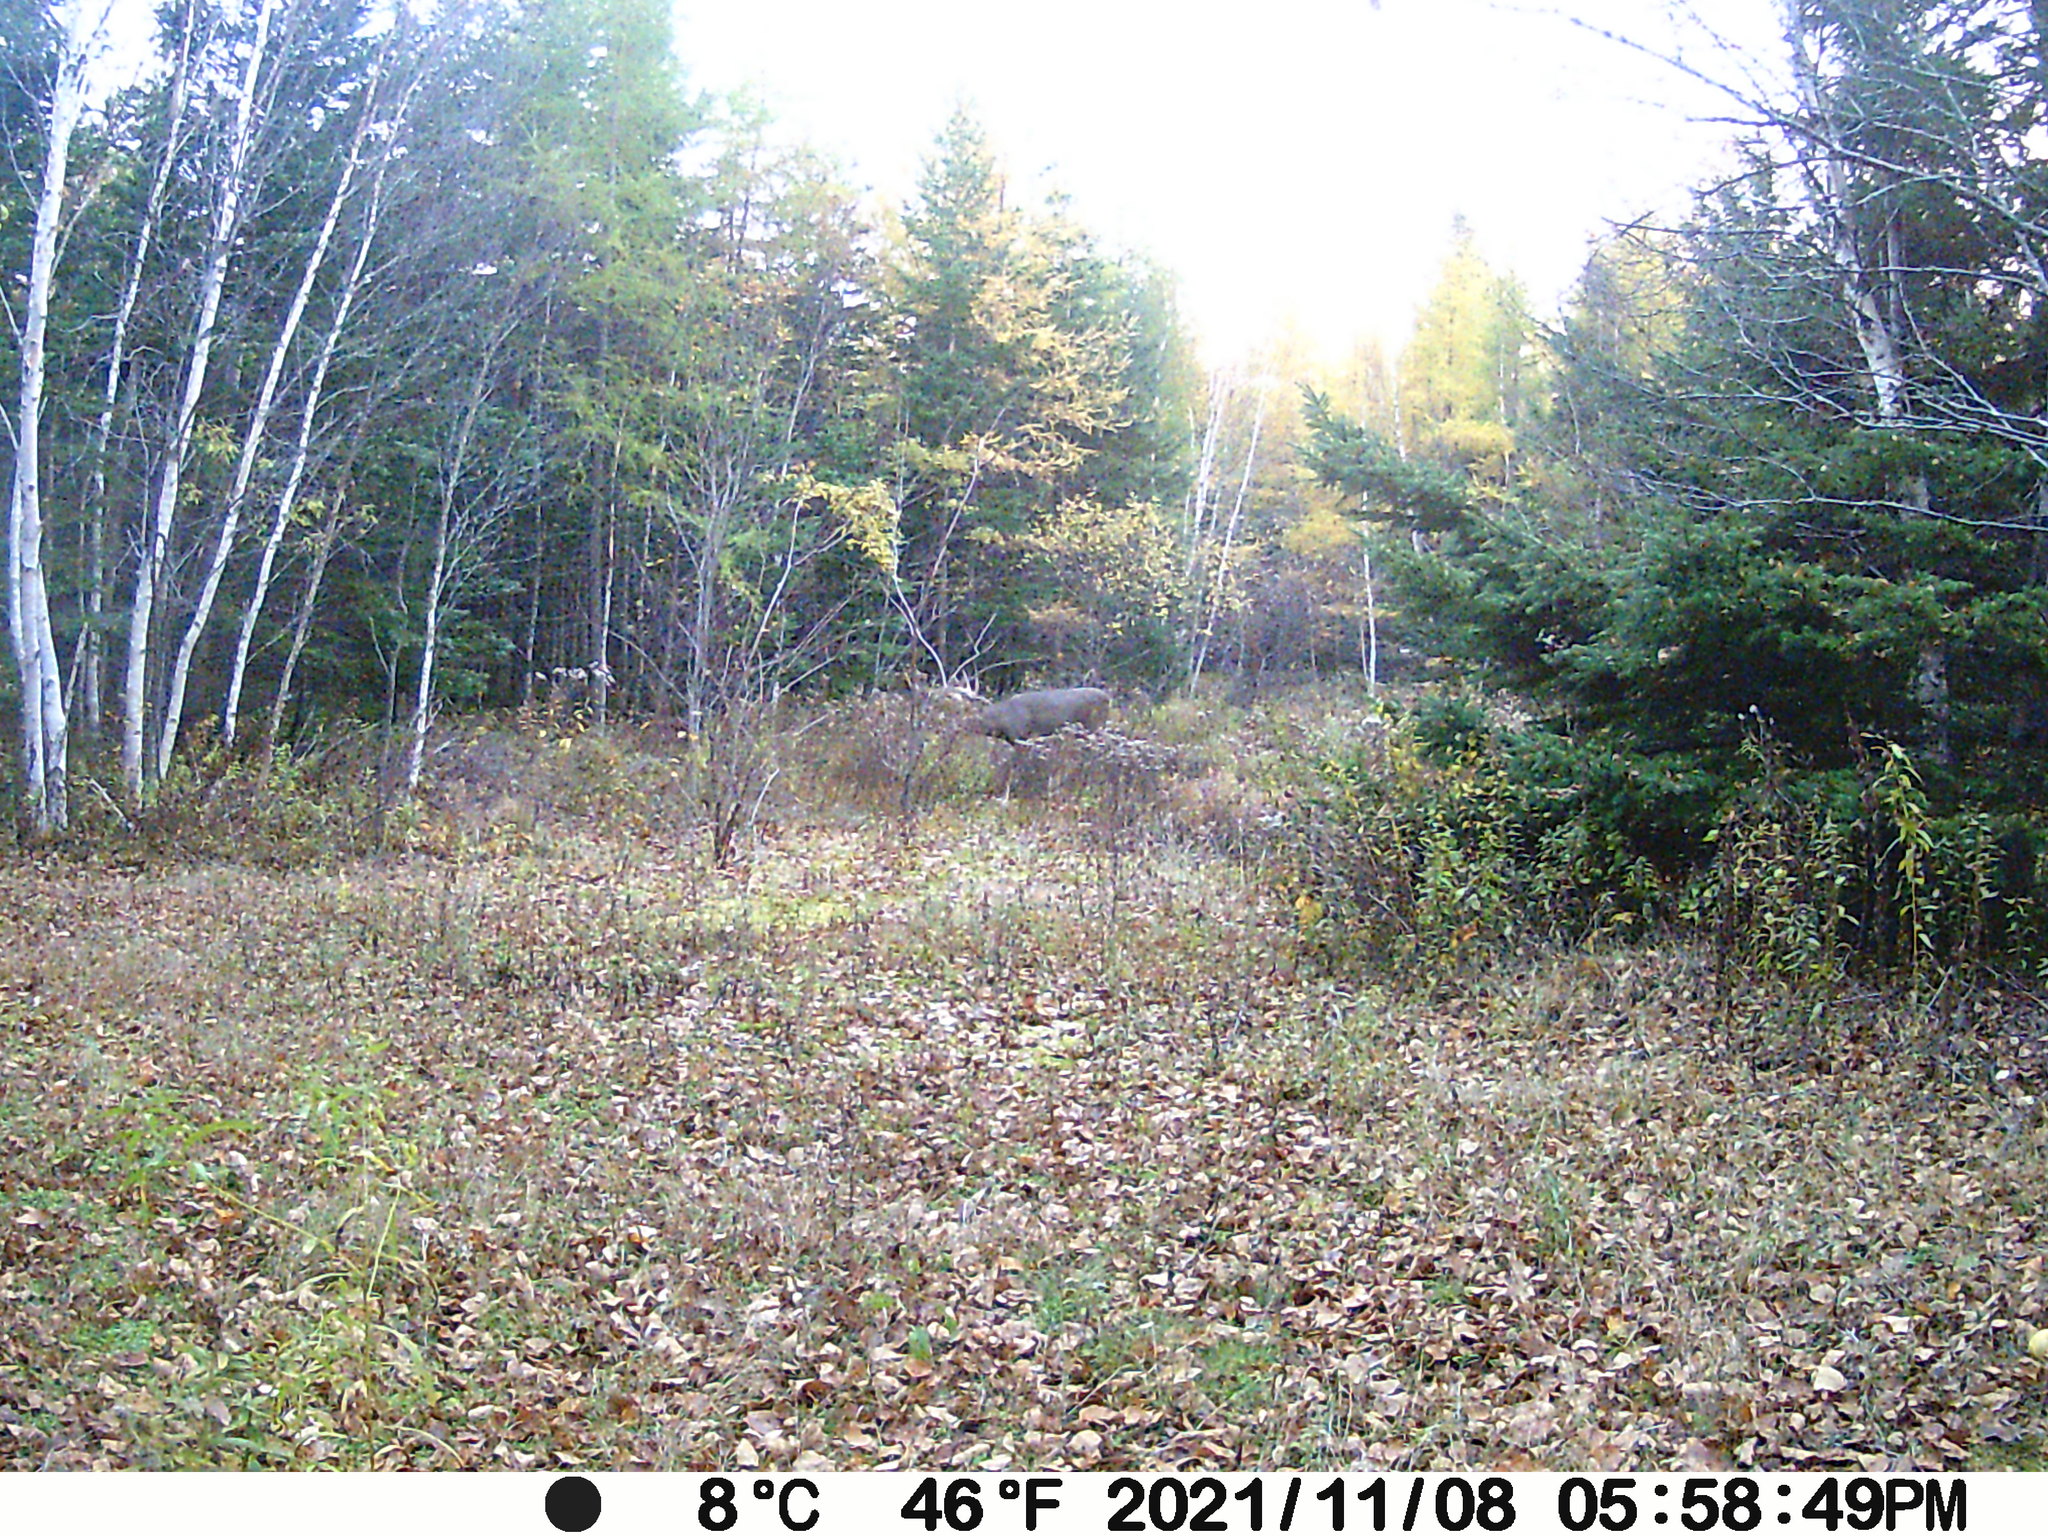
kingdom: Animalia
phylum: Chordata
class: Mammalia
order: Artiodactyla
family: Cervidae
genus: Odocoileus
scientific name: Odocoileus virginianus
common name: White-tailed deer
